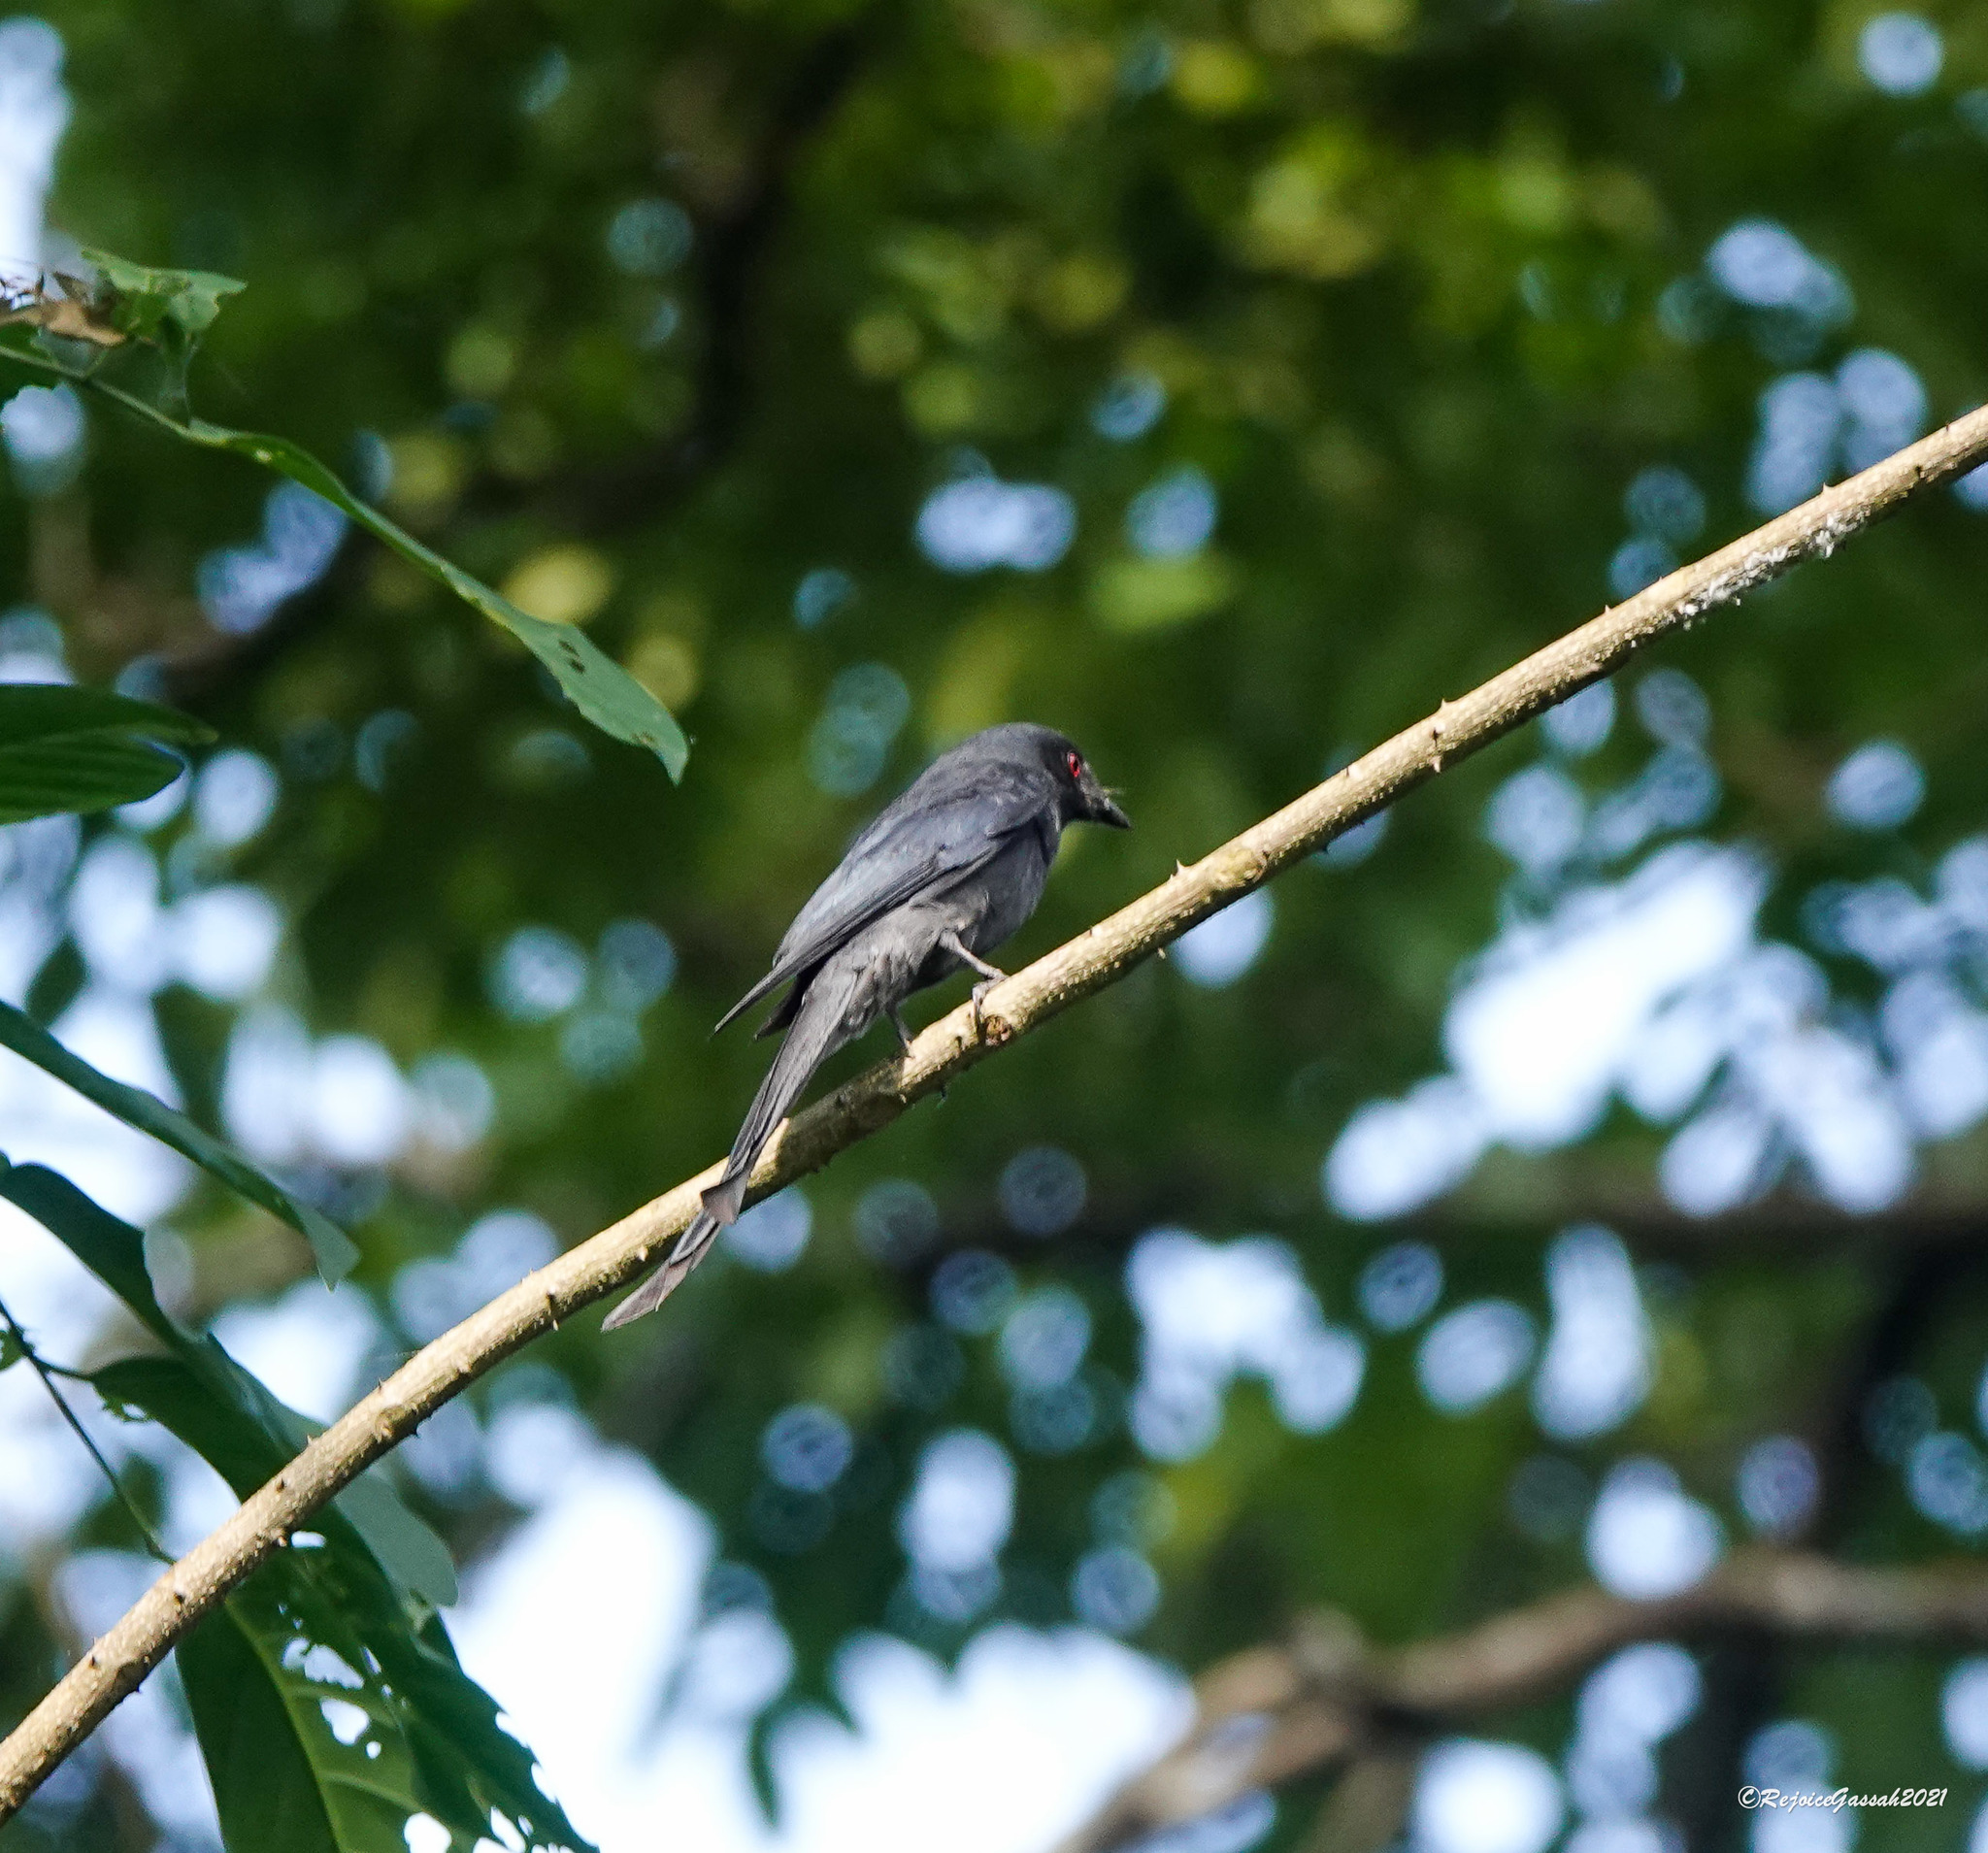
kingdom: Animalia
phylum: Chordata
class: Aves
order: Passeriformes
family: Dicruridae
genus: Dicrurus
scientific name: Dicrurus leucophaeus
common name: Ashy drongo
